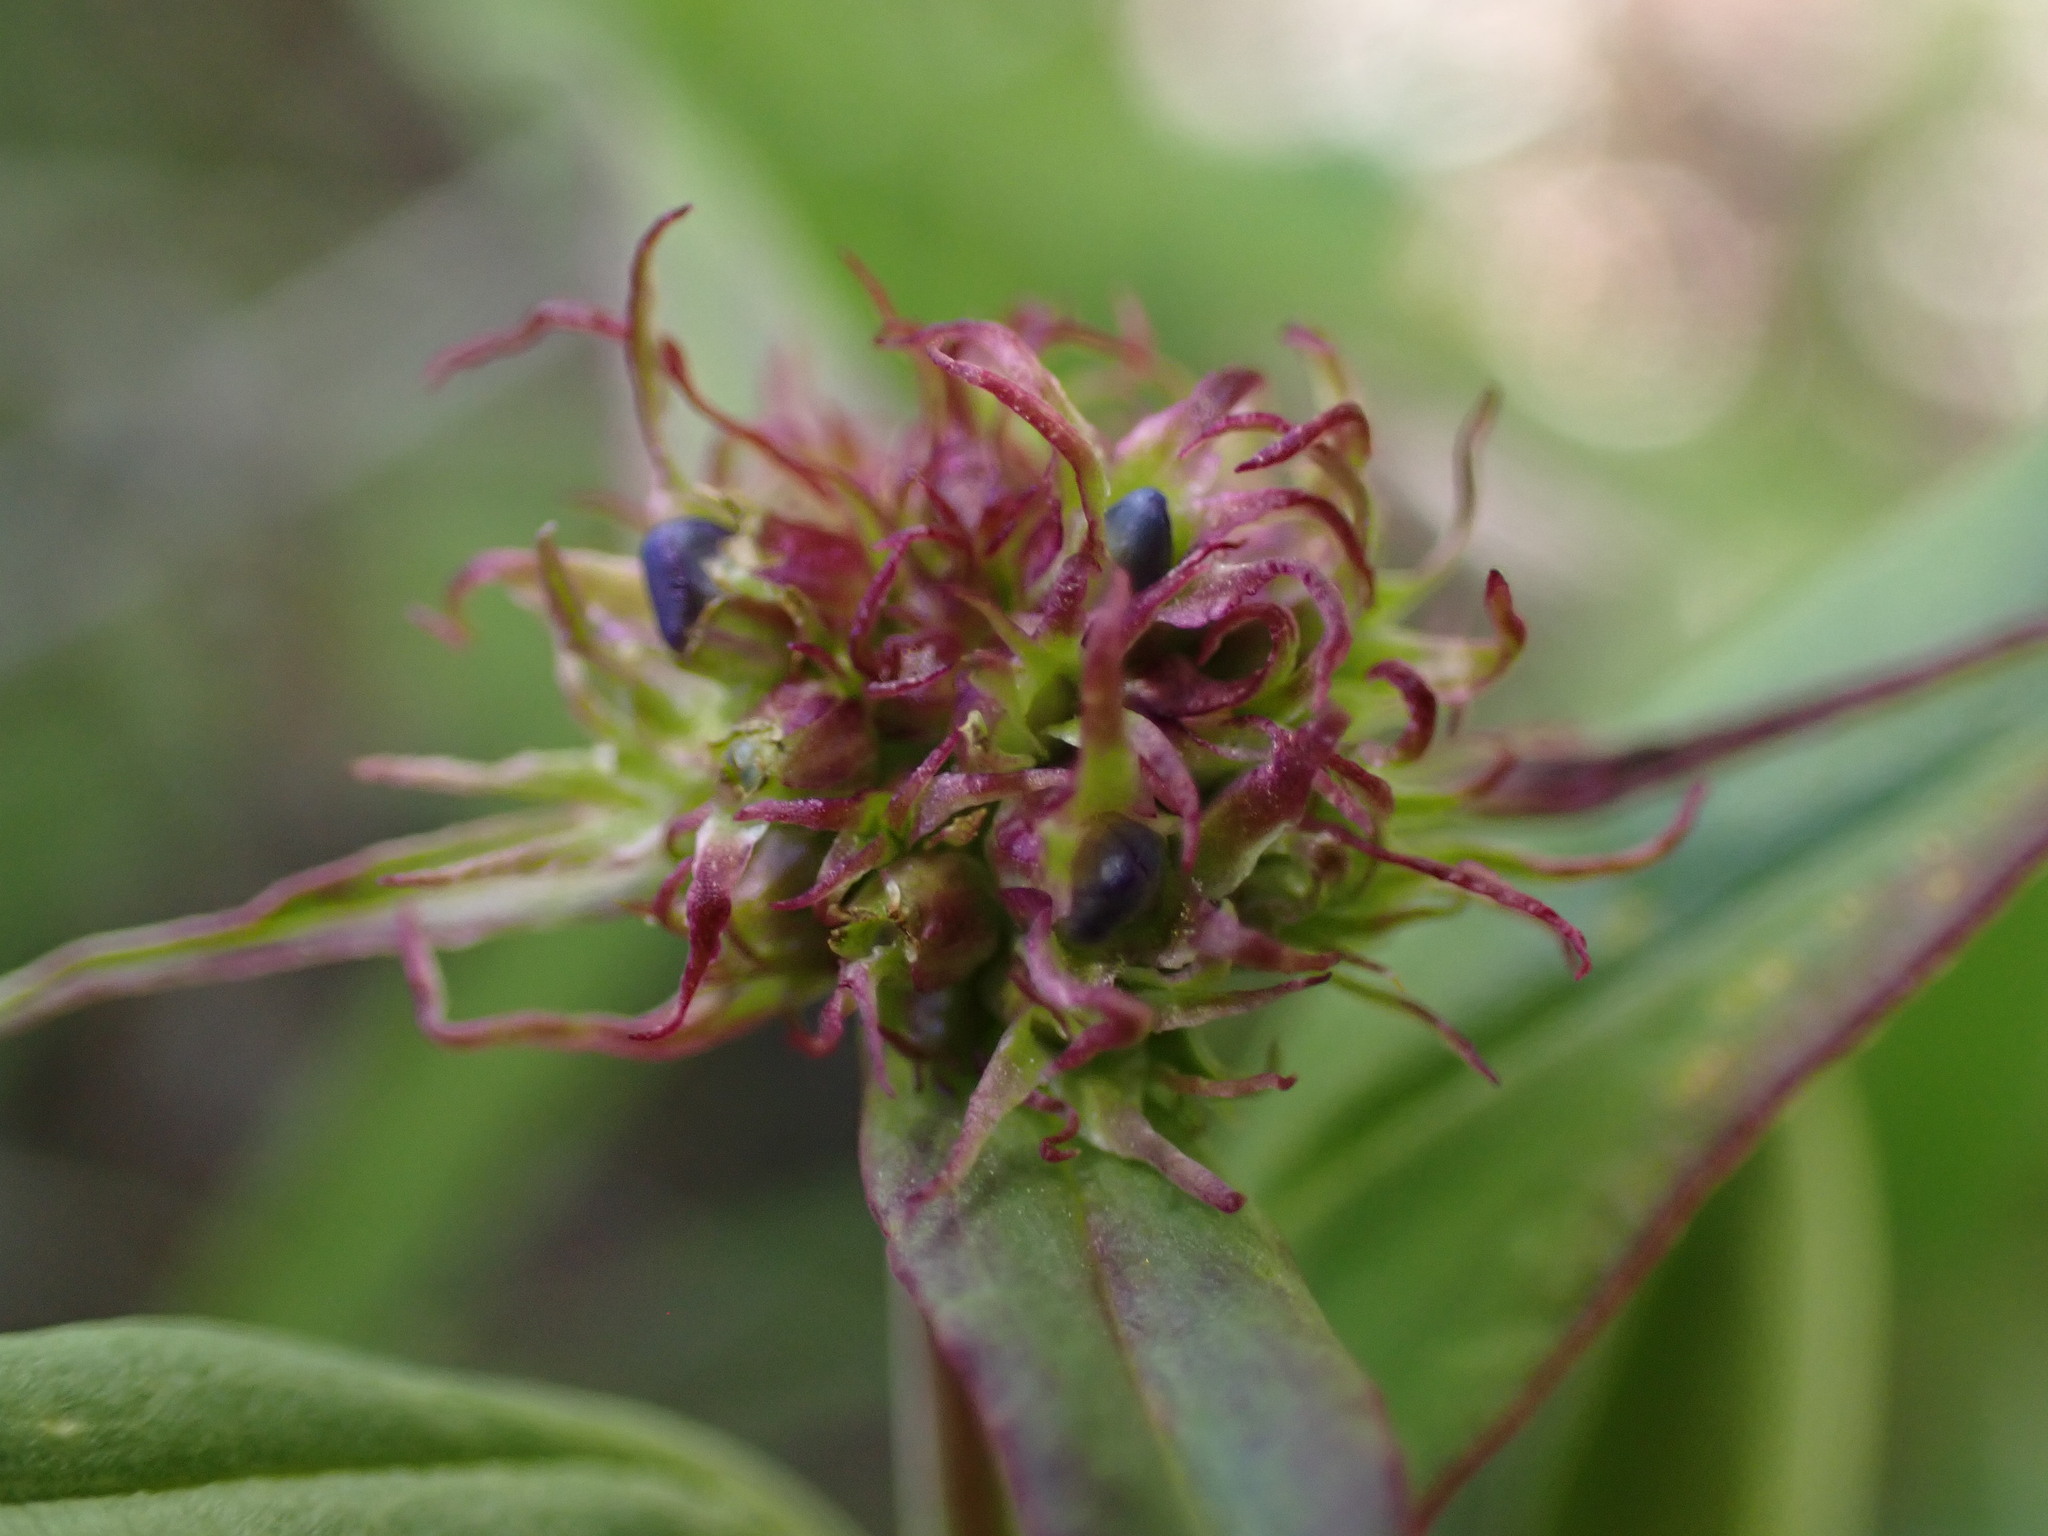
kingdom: Plantae
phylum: Tracheophyta
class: Magnoliopsida
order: Lamiales
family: Plantaginaceae
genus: Penstemon
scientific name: Penstemon procerus
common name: Small-flower penstemon
